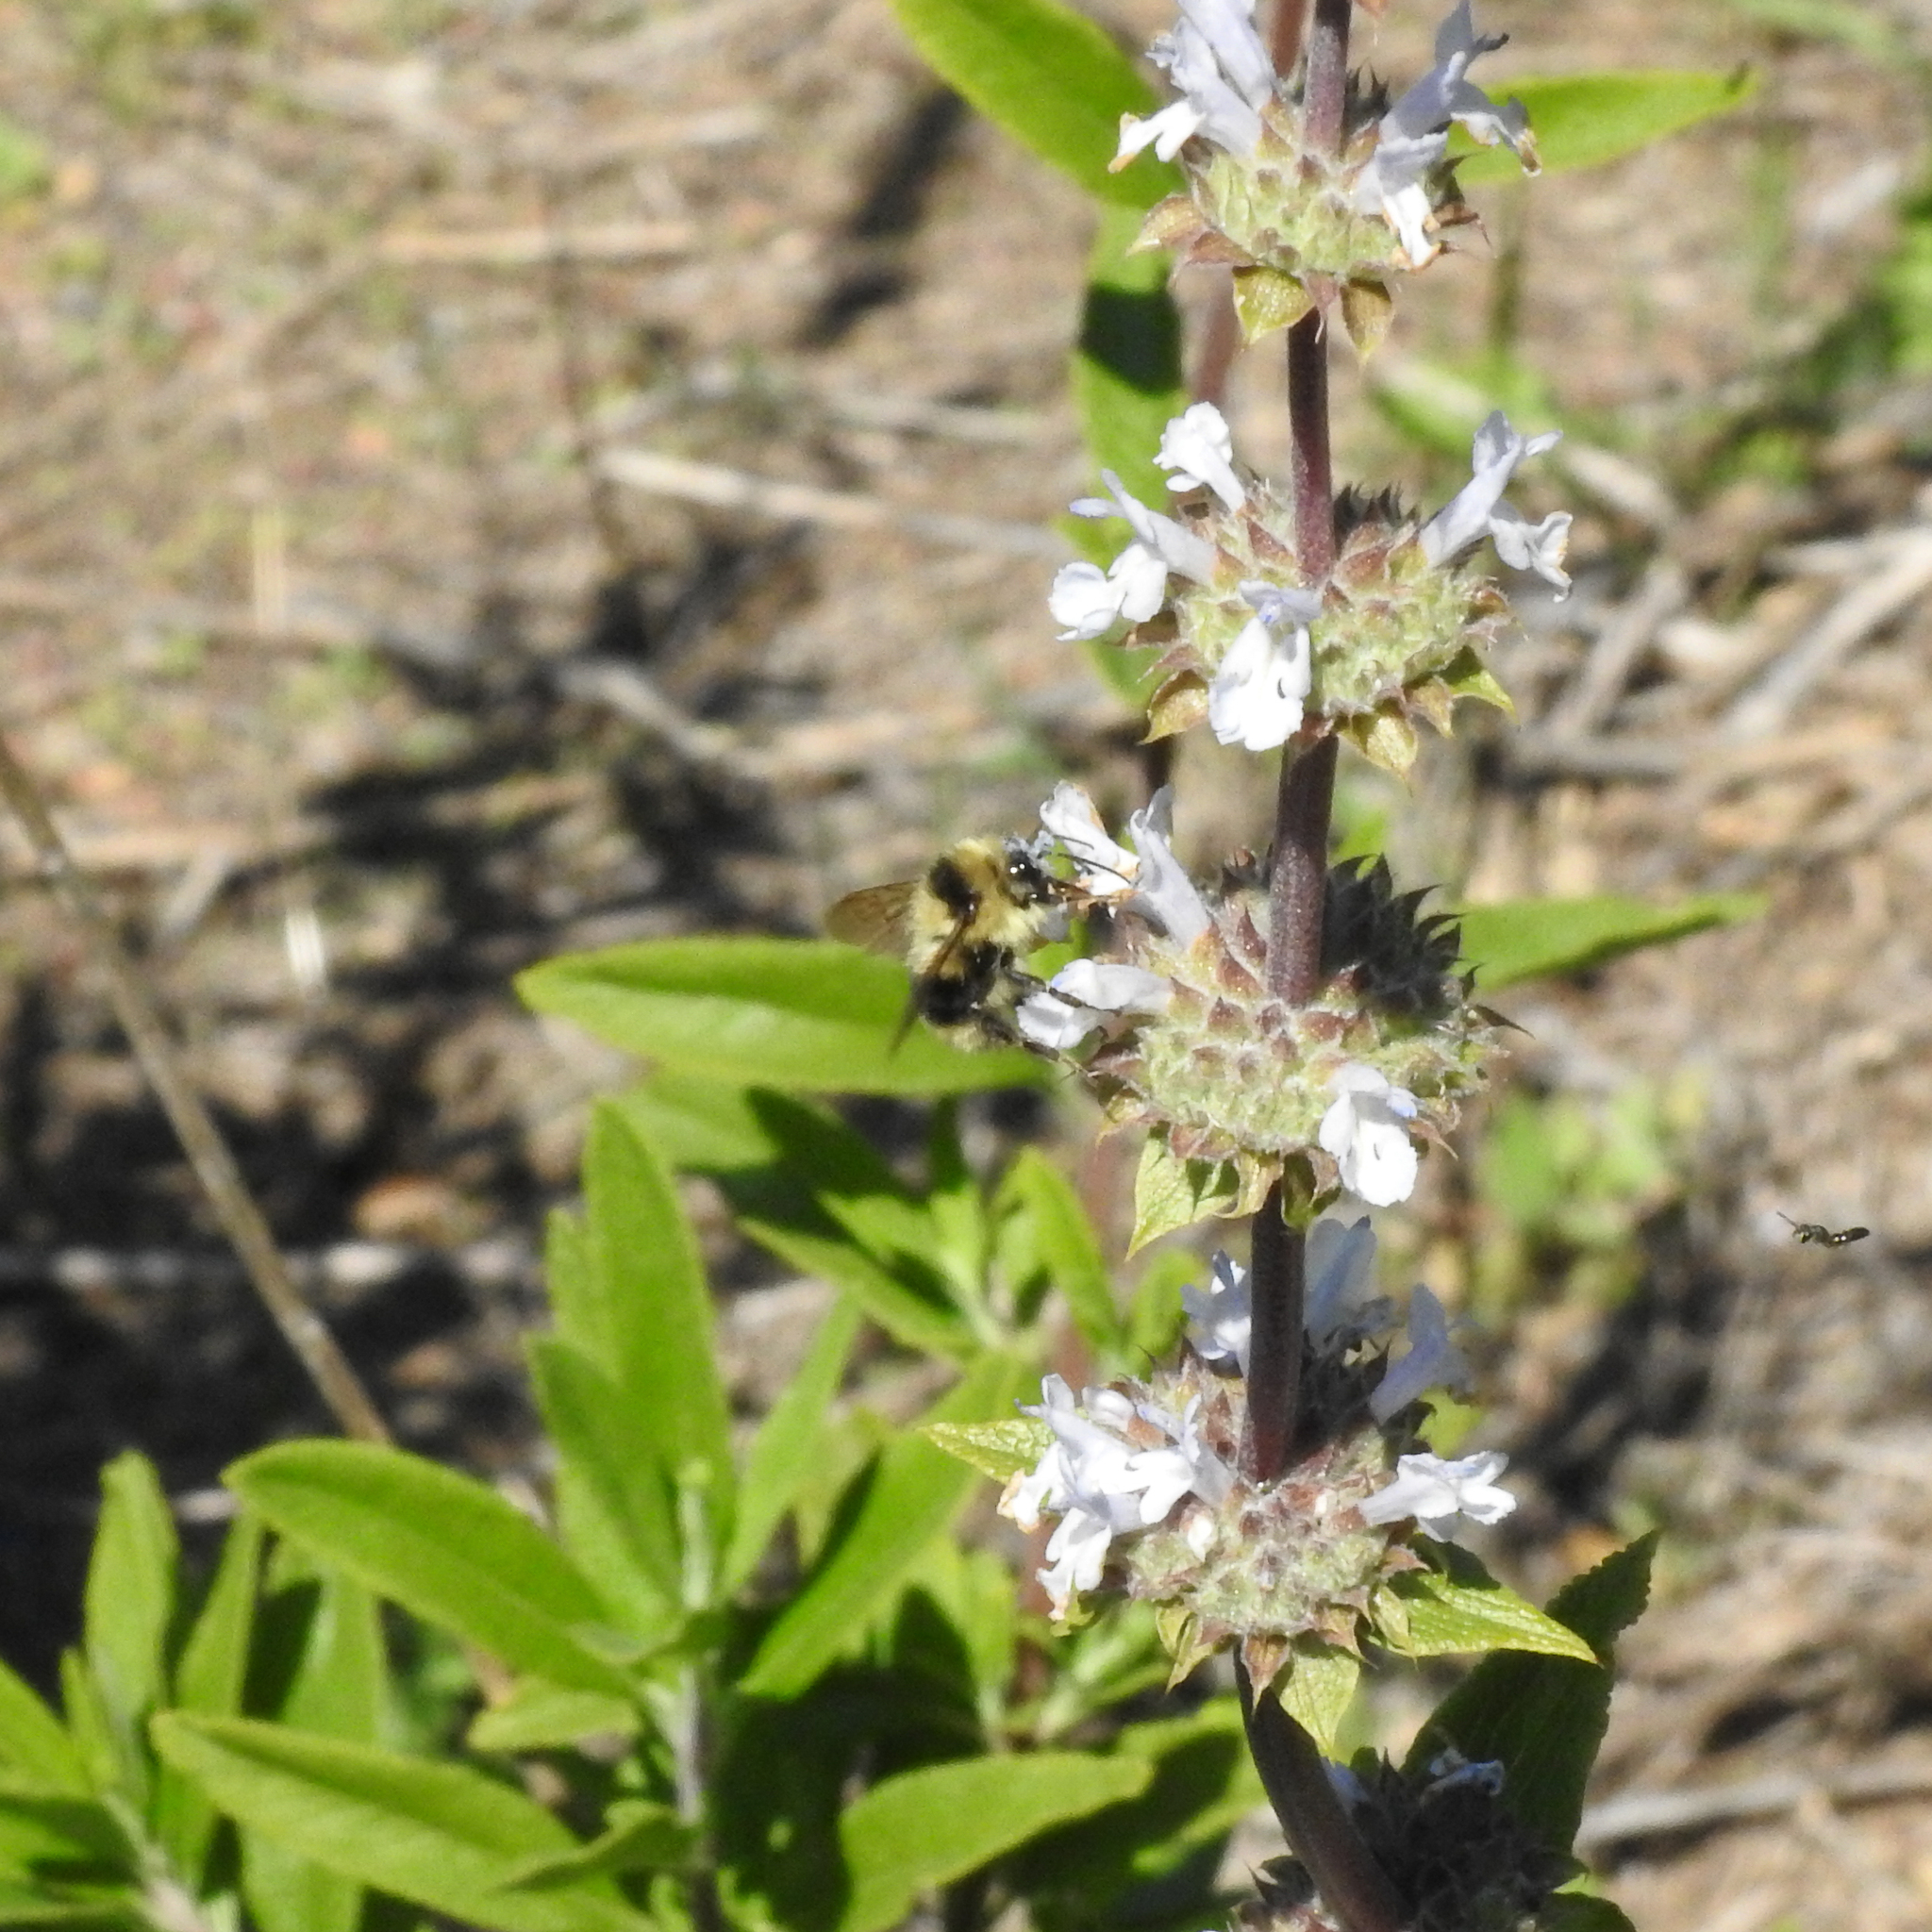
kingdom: Animalia
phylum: Arthropoda
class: Insecta
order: Hymenoptera
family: Apidae
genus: Bombus
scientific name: Bombus melanopygus
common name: Black tail bumble bee
